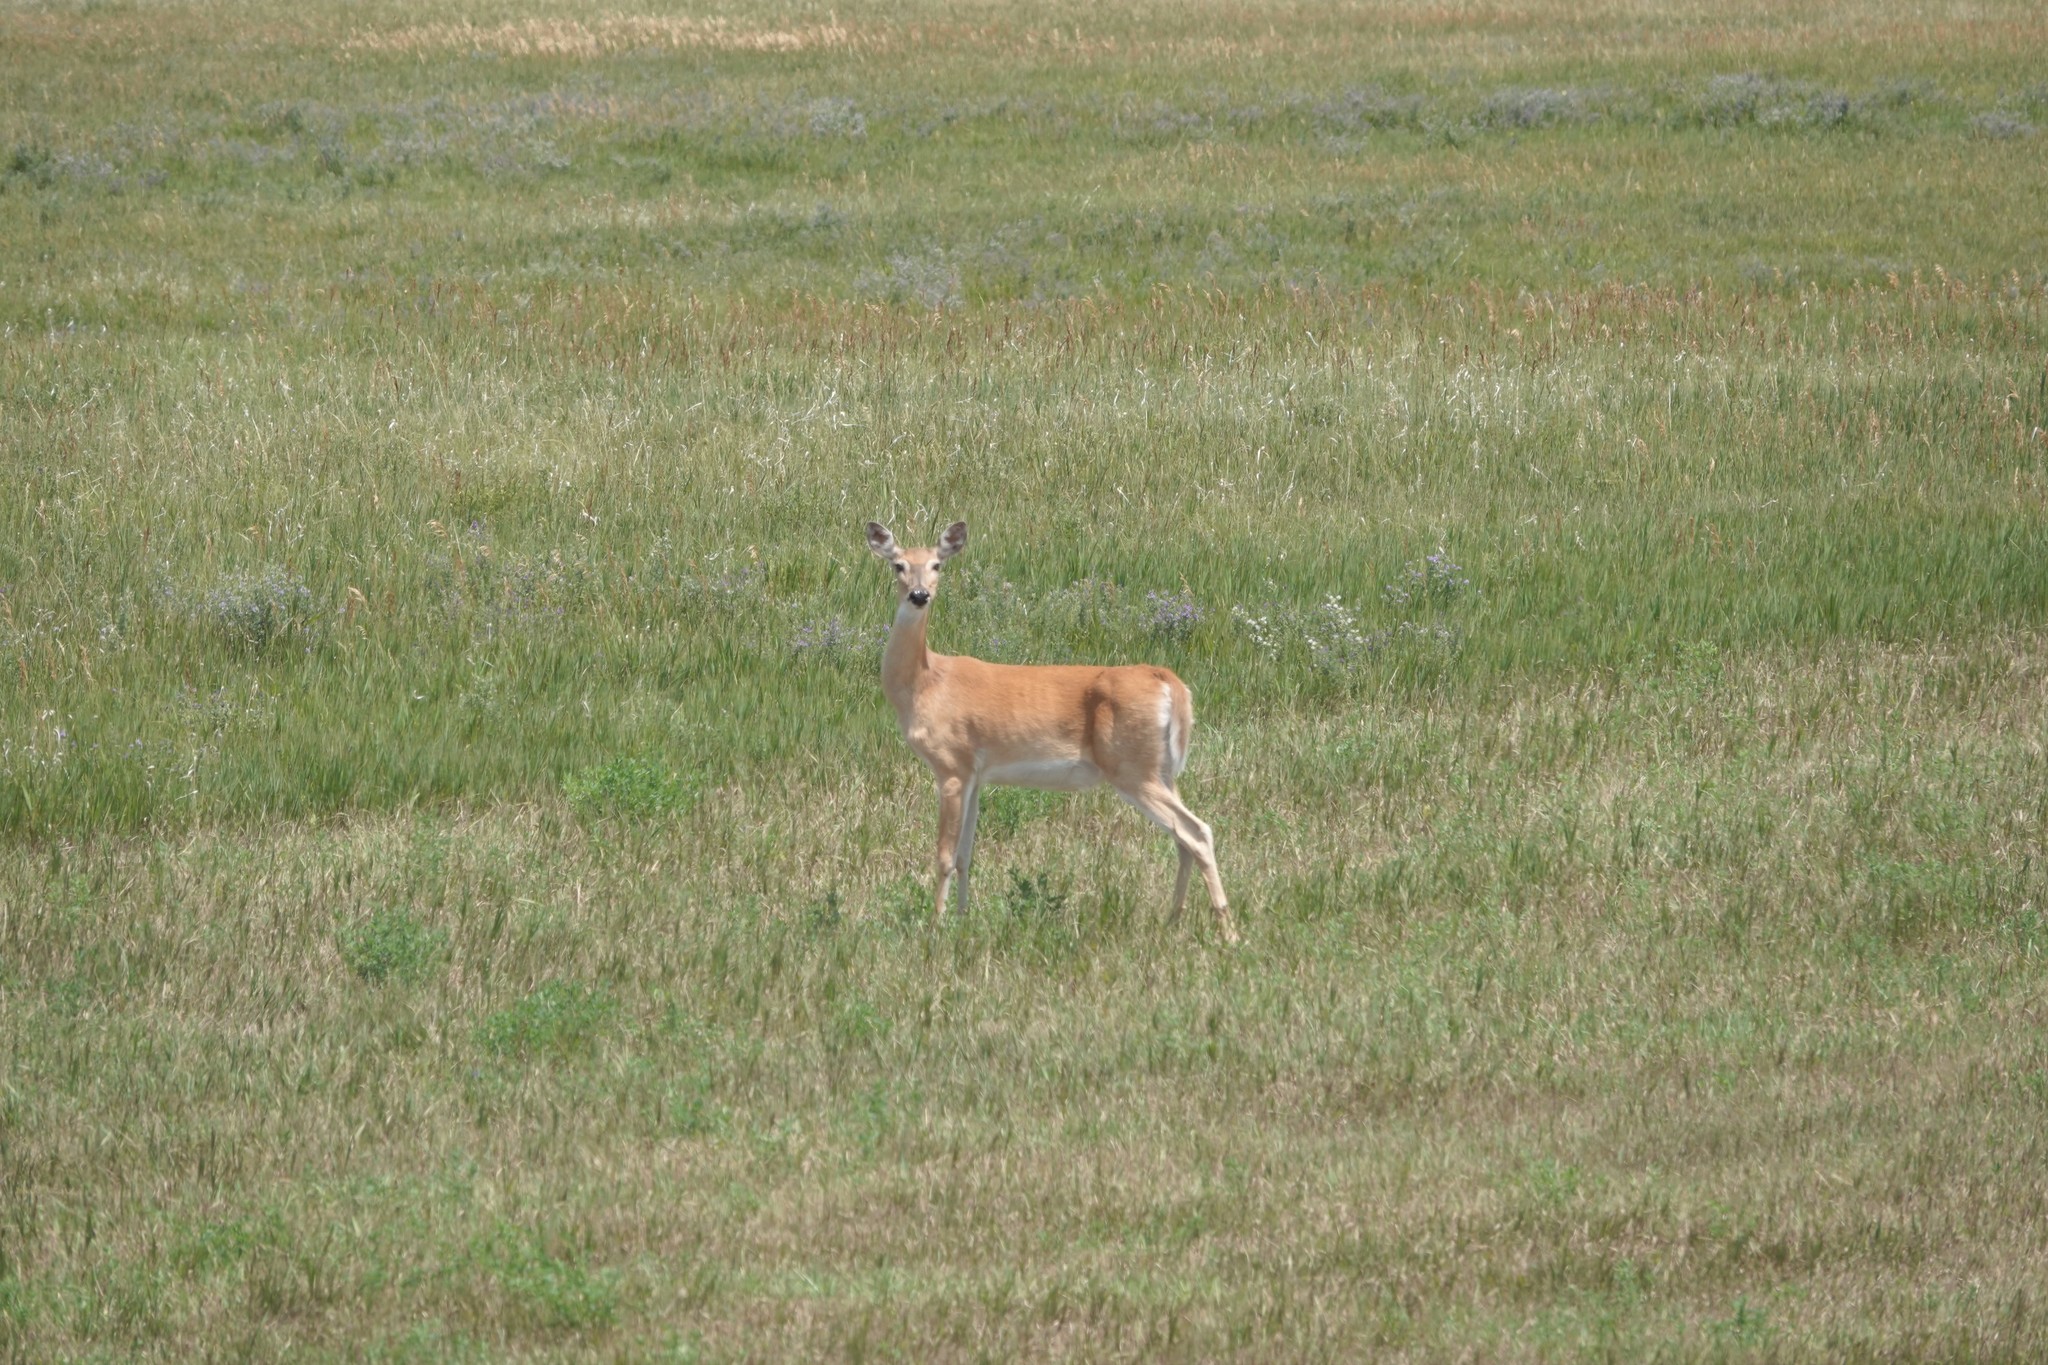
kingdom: Animalia
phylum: Chordata
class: Mammalia
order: Artiodactyla
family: Cervidae
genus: Odocoileus
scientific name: Odocoileus virginianus
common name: White-tailed deer
